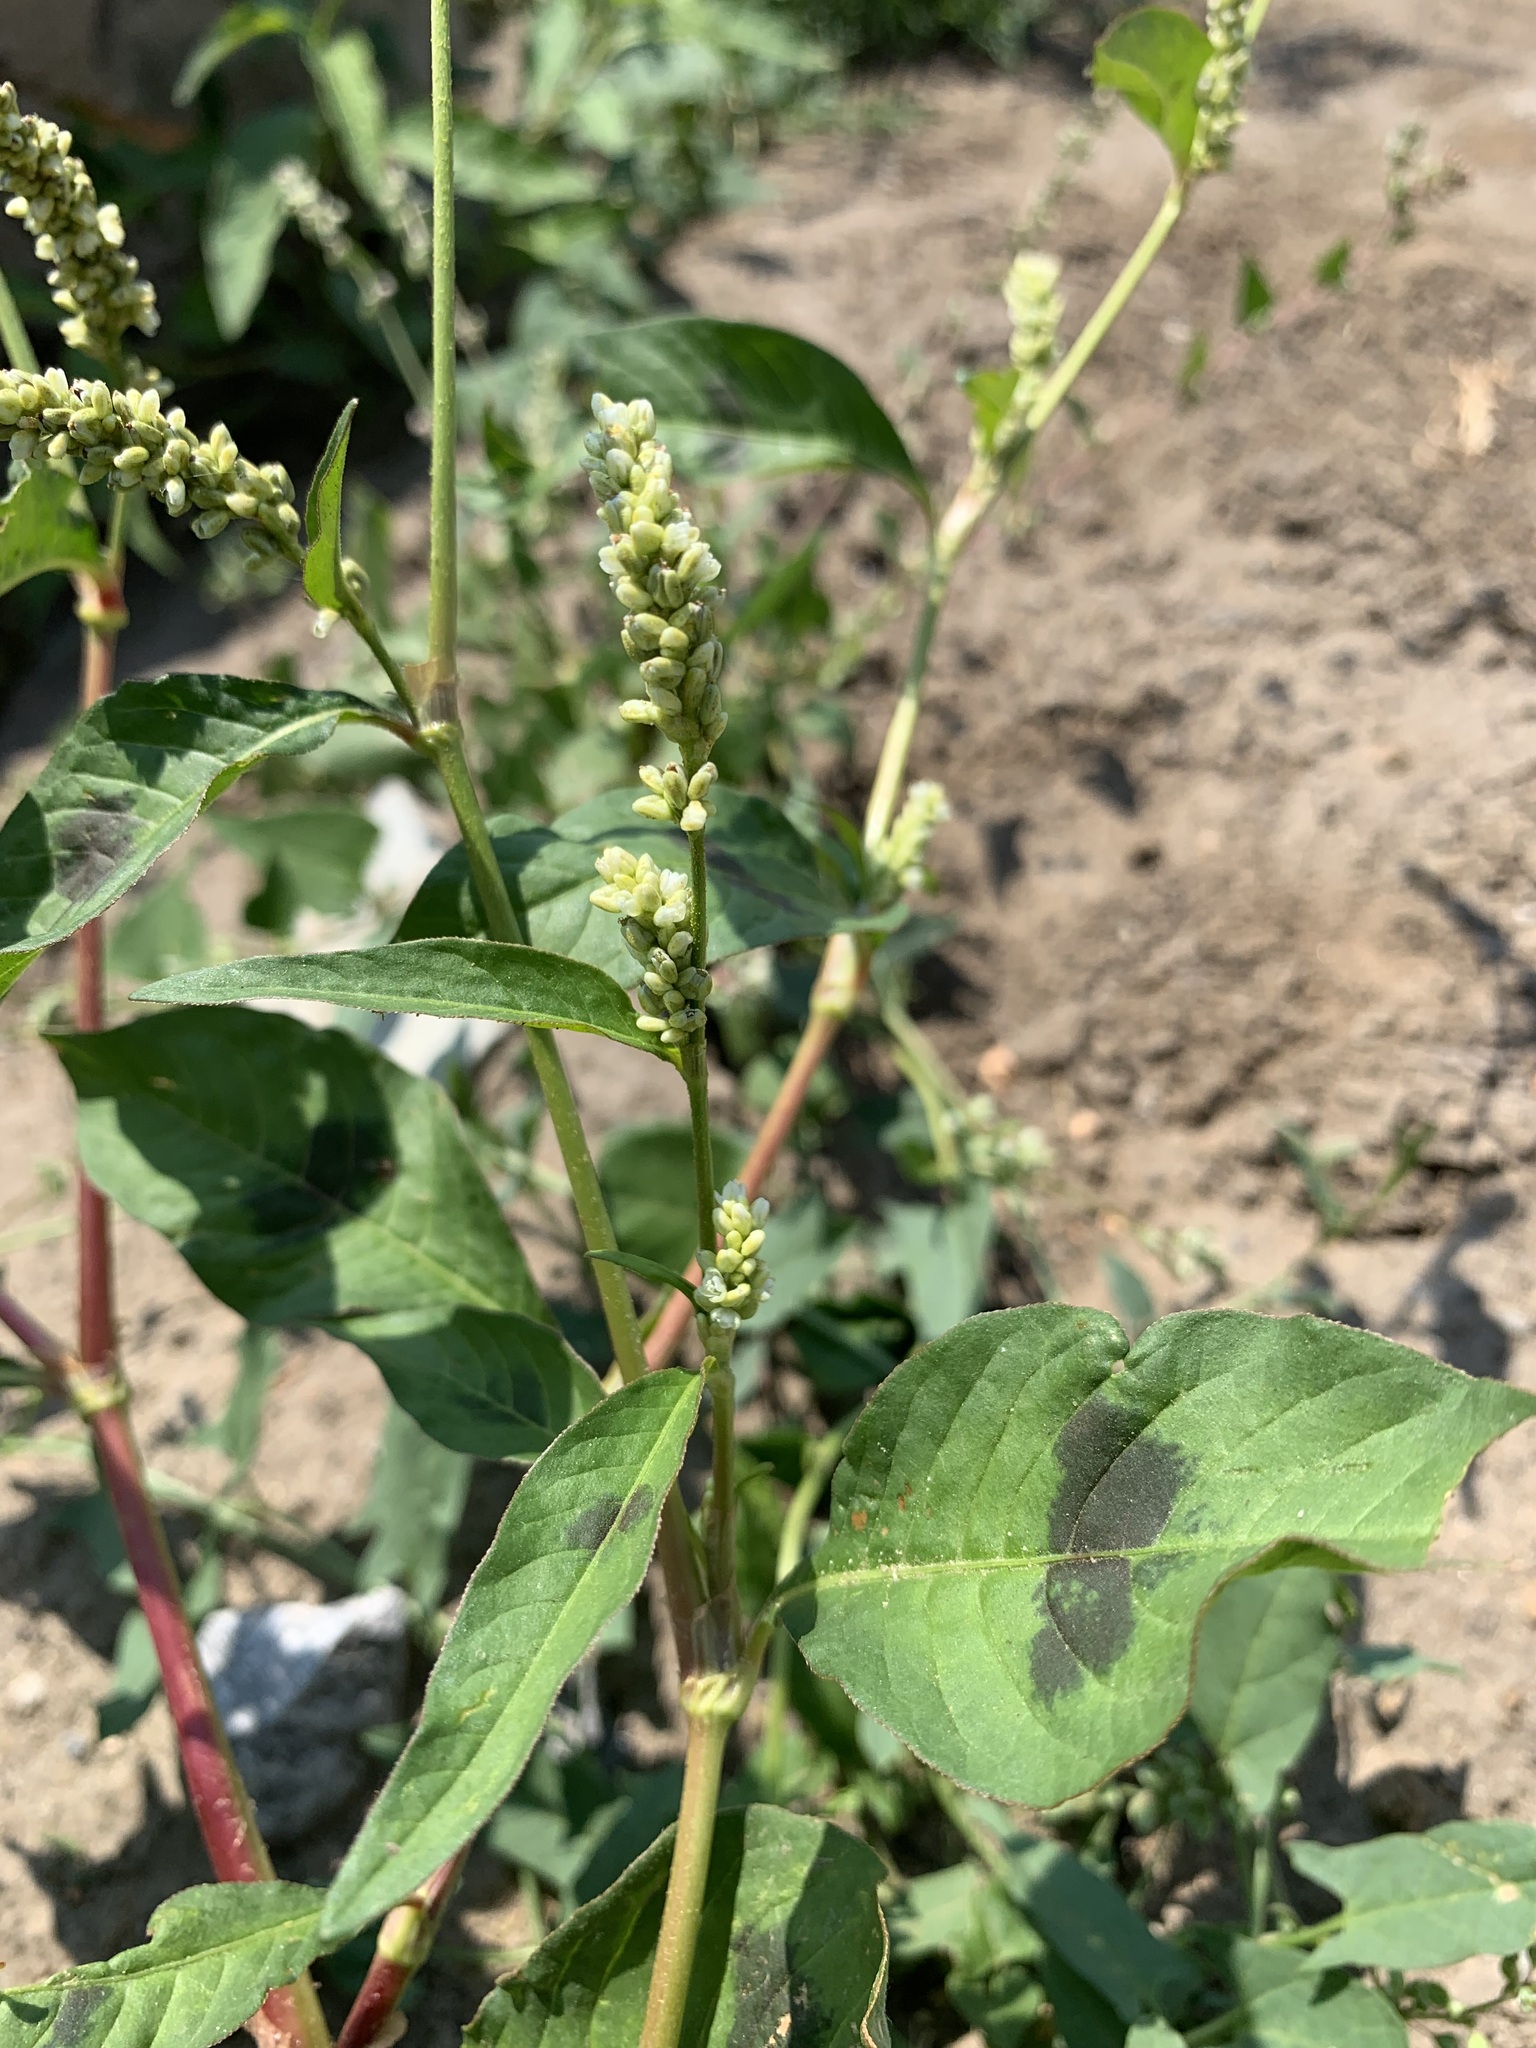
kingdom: Plantae
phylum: Tracheophyta
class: Magnoliopsida
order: Caryophyllales
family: Polygonaceae
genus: Persicaria
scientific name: Persicaria lapathifolia
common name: Curlytop knotweed
